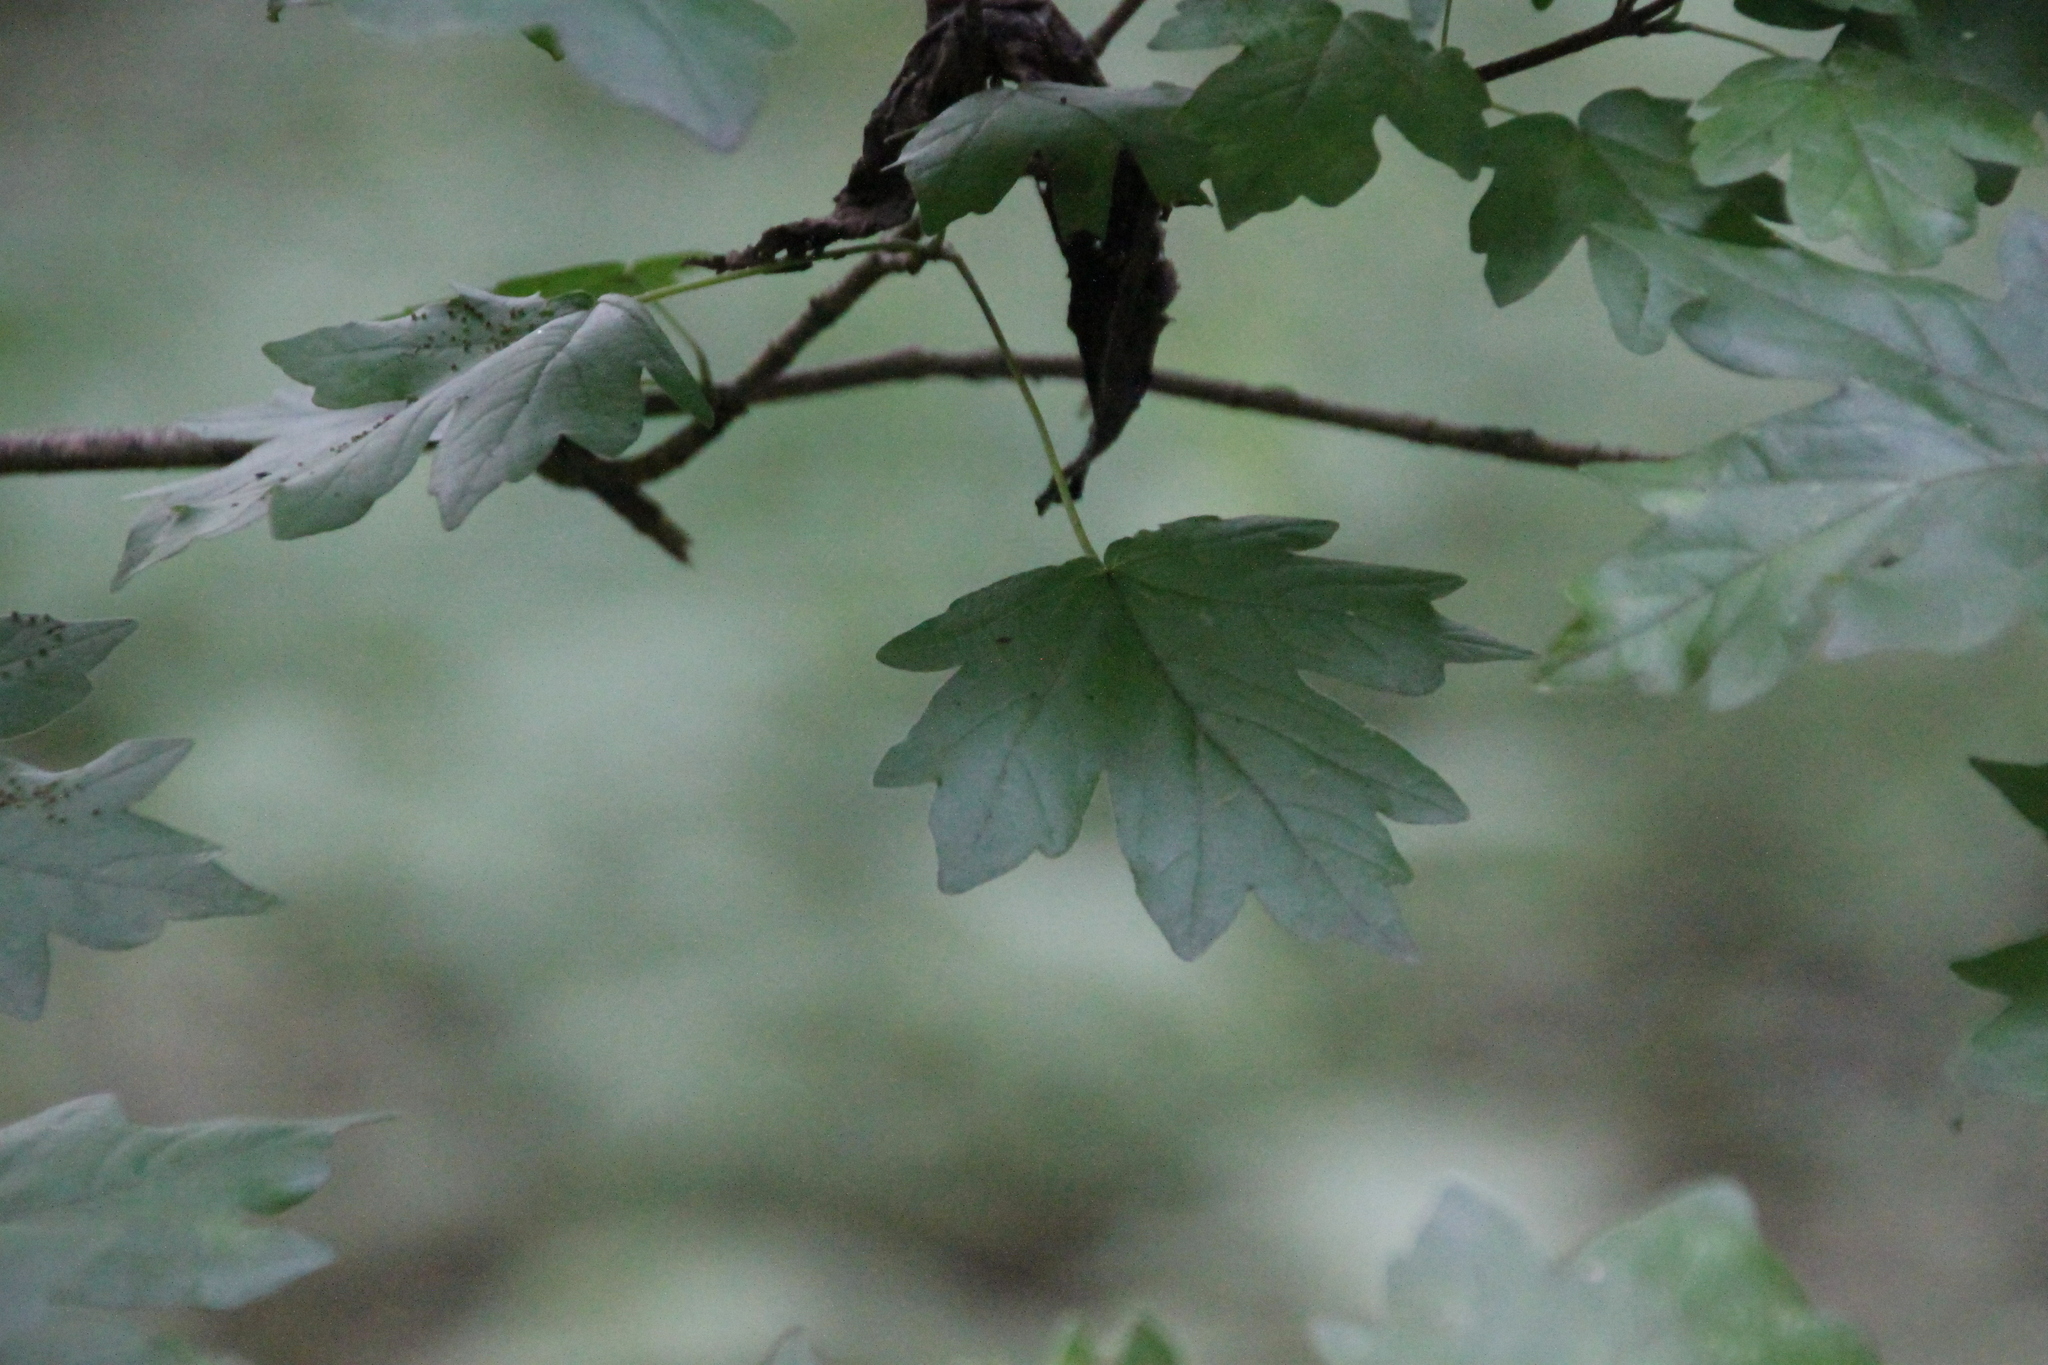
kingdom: Plantae
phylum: Tracheophyta
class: Magnoliopsida
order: Sapindales
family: Sapindaceae
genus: Acer
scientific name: Acer campestre
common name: Field maple
